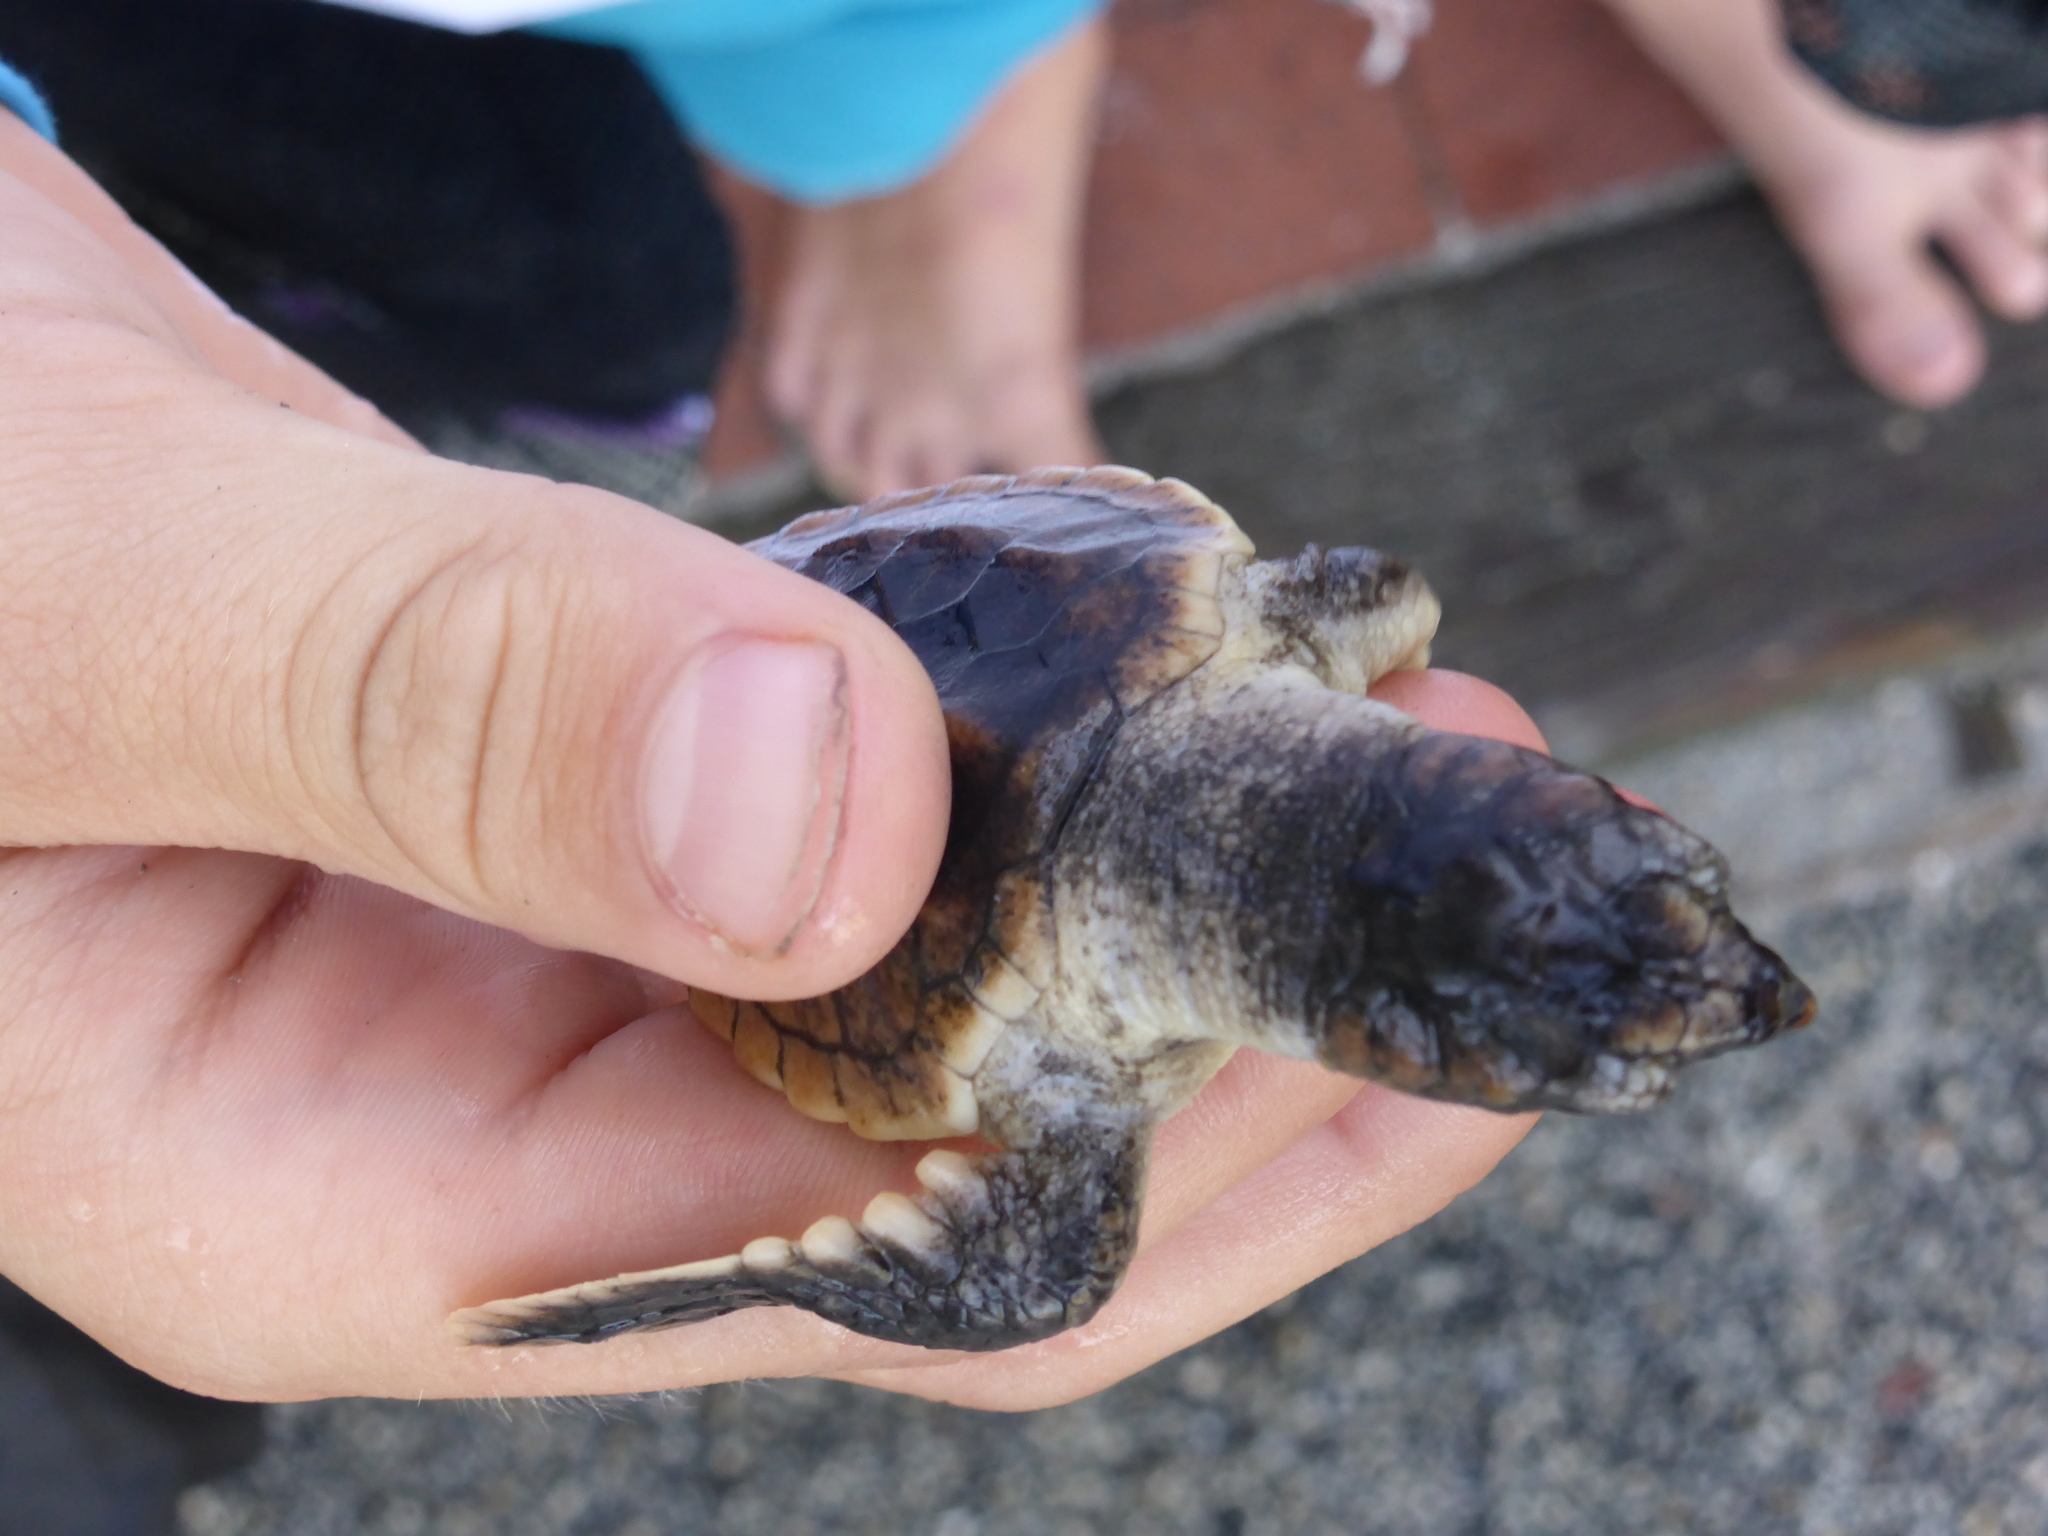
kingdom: Animalia
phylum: Chordata
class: Testudines
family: Cheloniidae
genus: Caretta
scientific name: Caretta caretta
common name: Loggerhead sea turtle
